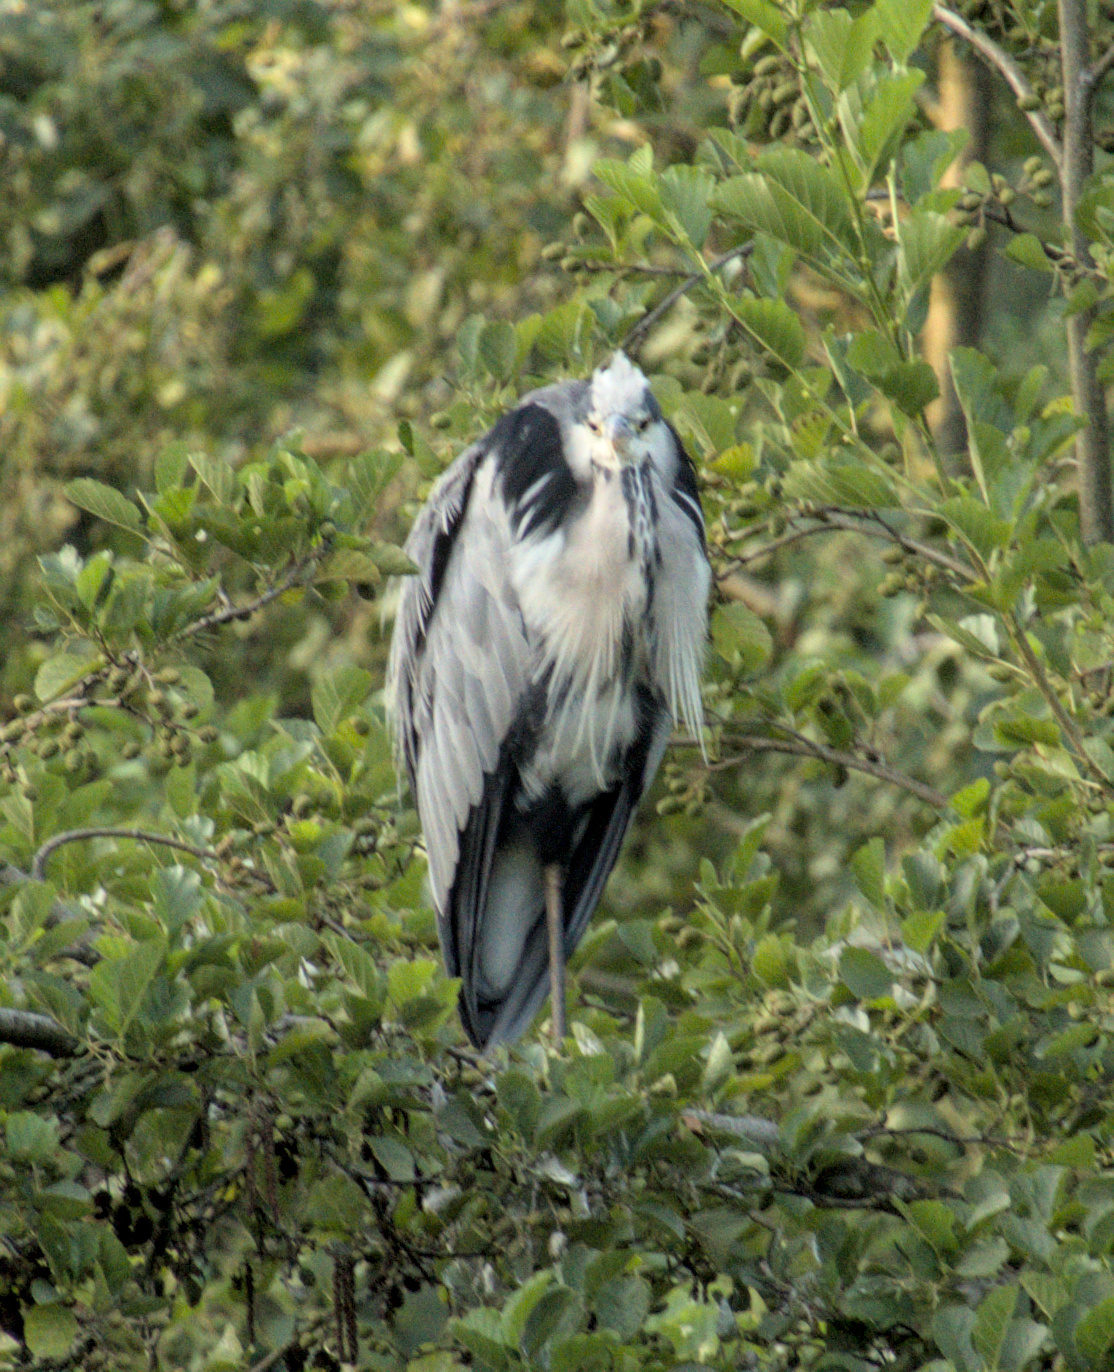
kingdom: Animalia
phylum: Chordata
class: Aves
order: Pelecaniformes
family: Ardeidae
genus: Ardea
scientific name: Ardea cinerea
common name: Grey heron
